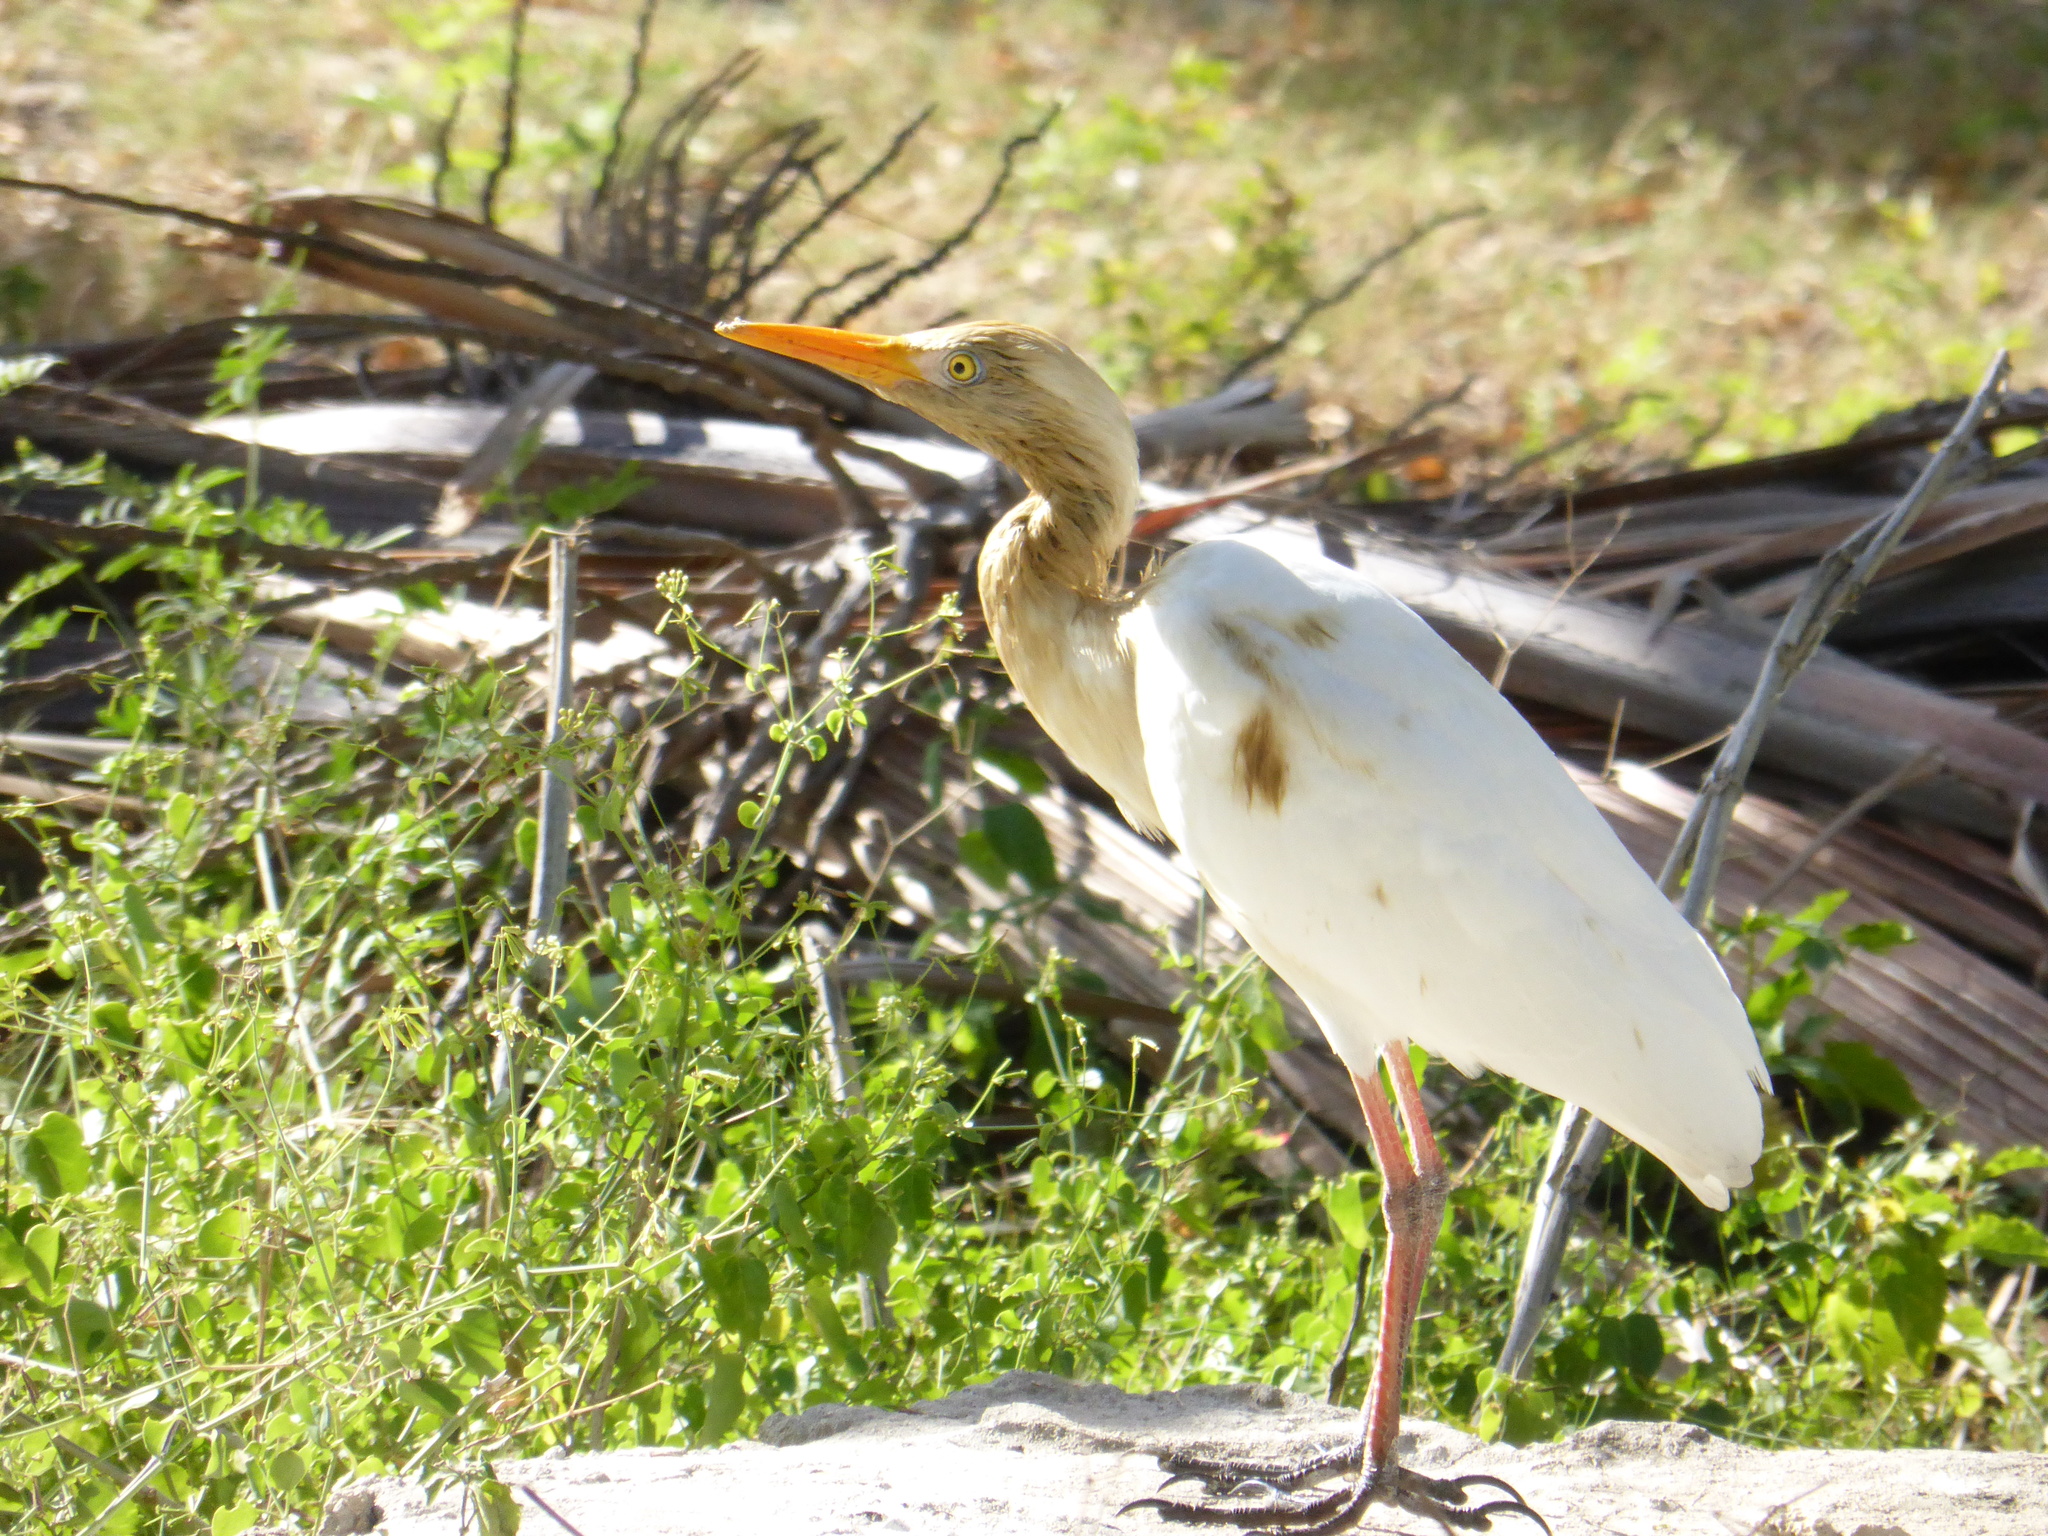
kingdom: Animalia
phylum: Chordata
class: Aves
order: Pelecaniformes
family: Ardeidae
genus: Bubulcus
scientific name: Bubulcus ibis
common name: Cattle egret
